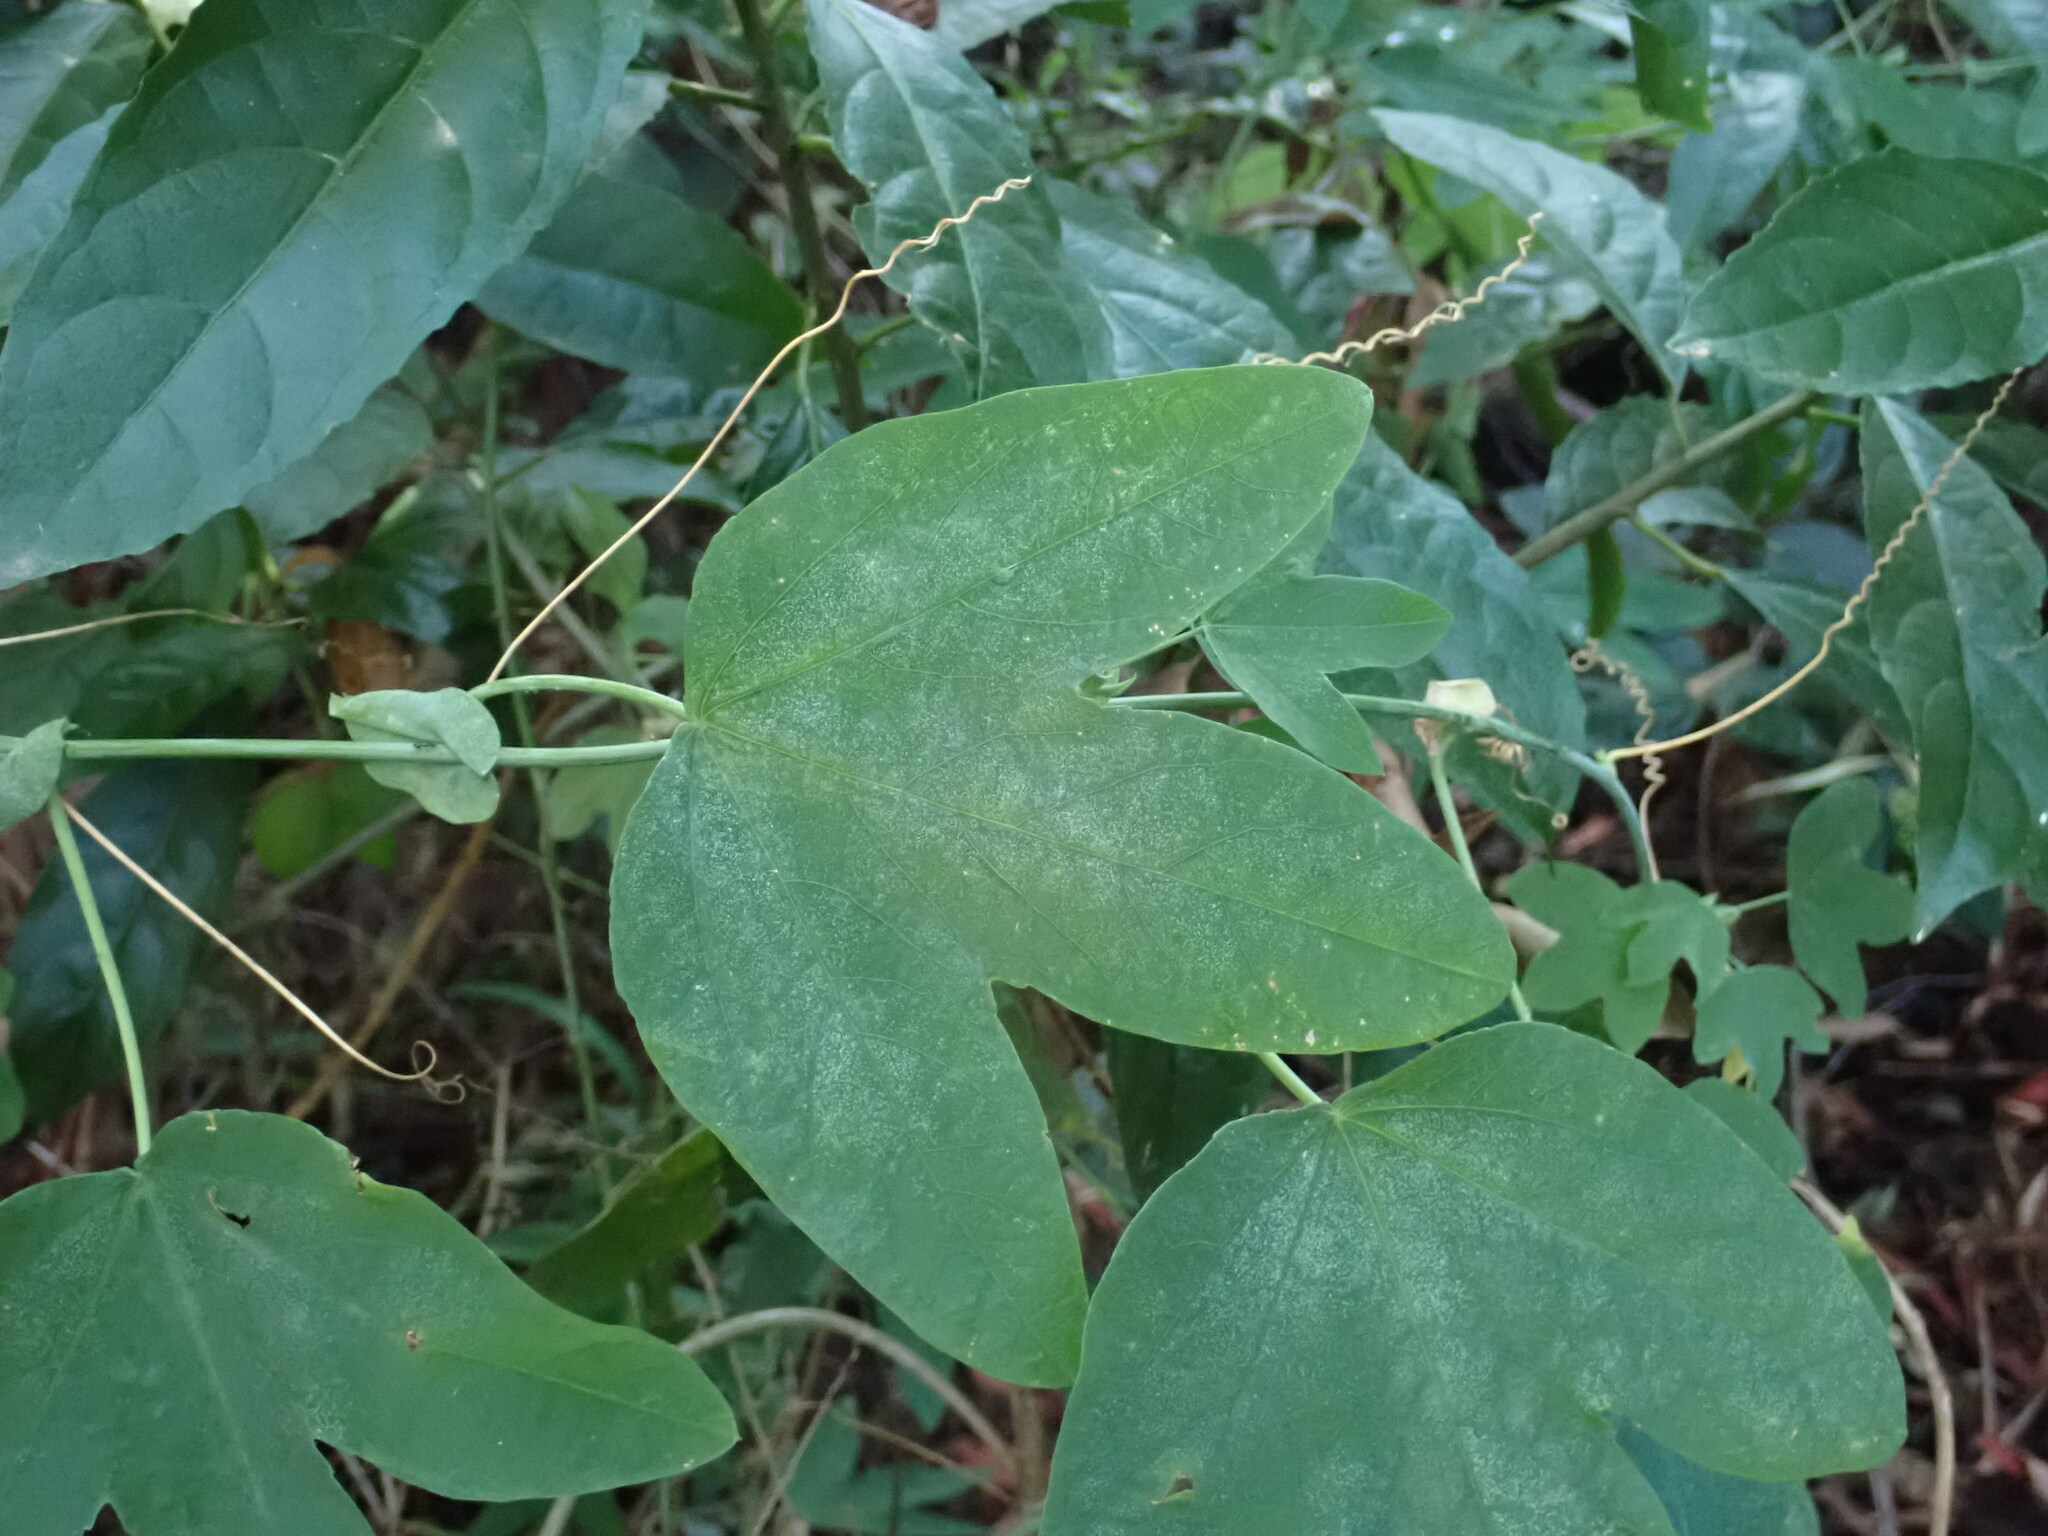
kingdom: Plantae
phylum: Tracheophyta
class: Magnoliopsida
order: Malpighiales
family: Passifloraceae
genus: Passiflora
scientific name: Passiflora subpeltata
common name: White passionflower
